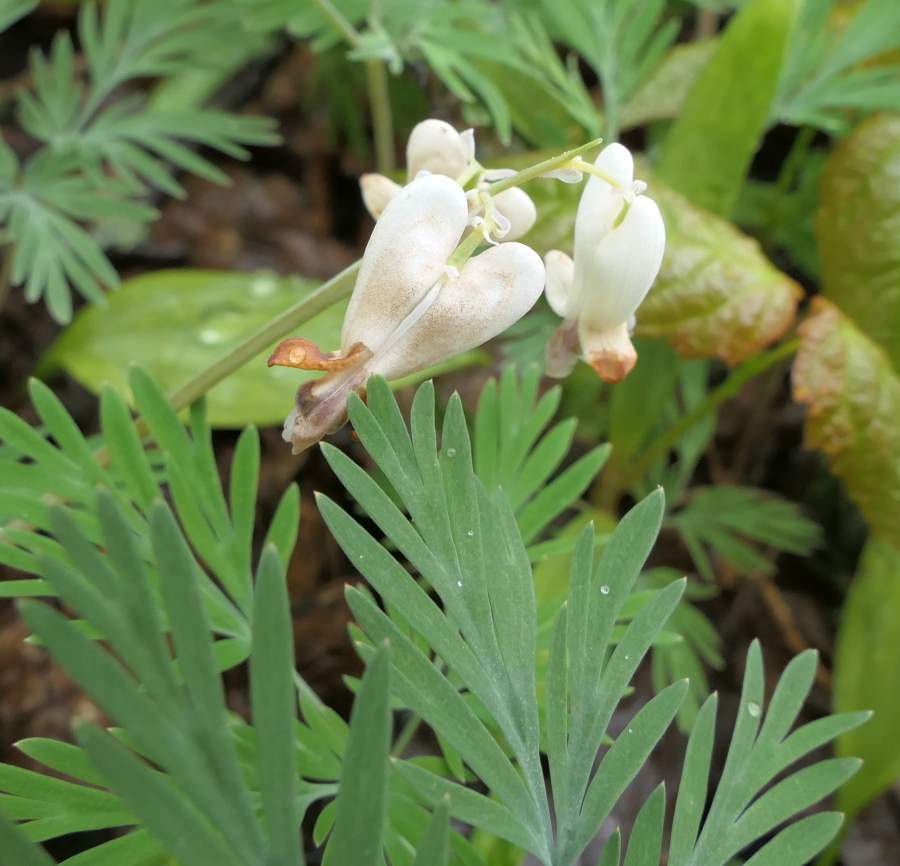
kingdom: Plantae
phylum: Tracheophyta
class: Magnoliopsida
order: Ranunculales
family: Papaveraceae
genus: Dicentra
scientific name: Dicentra canadensis
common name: Squirrel-corn
